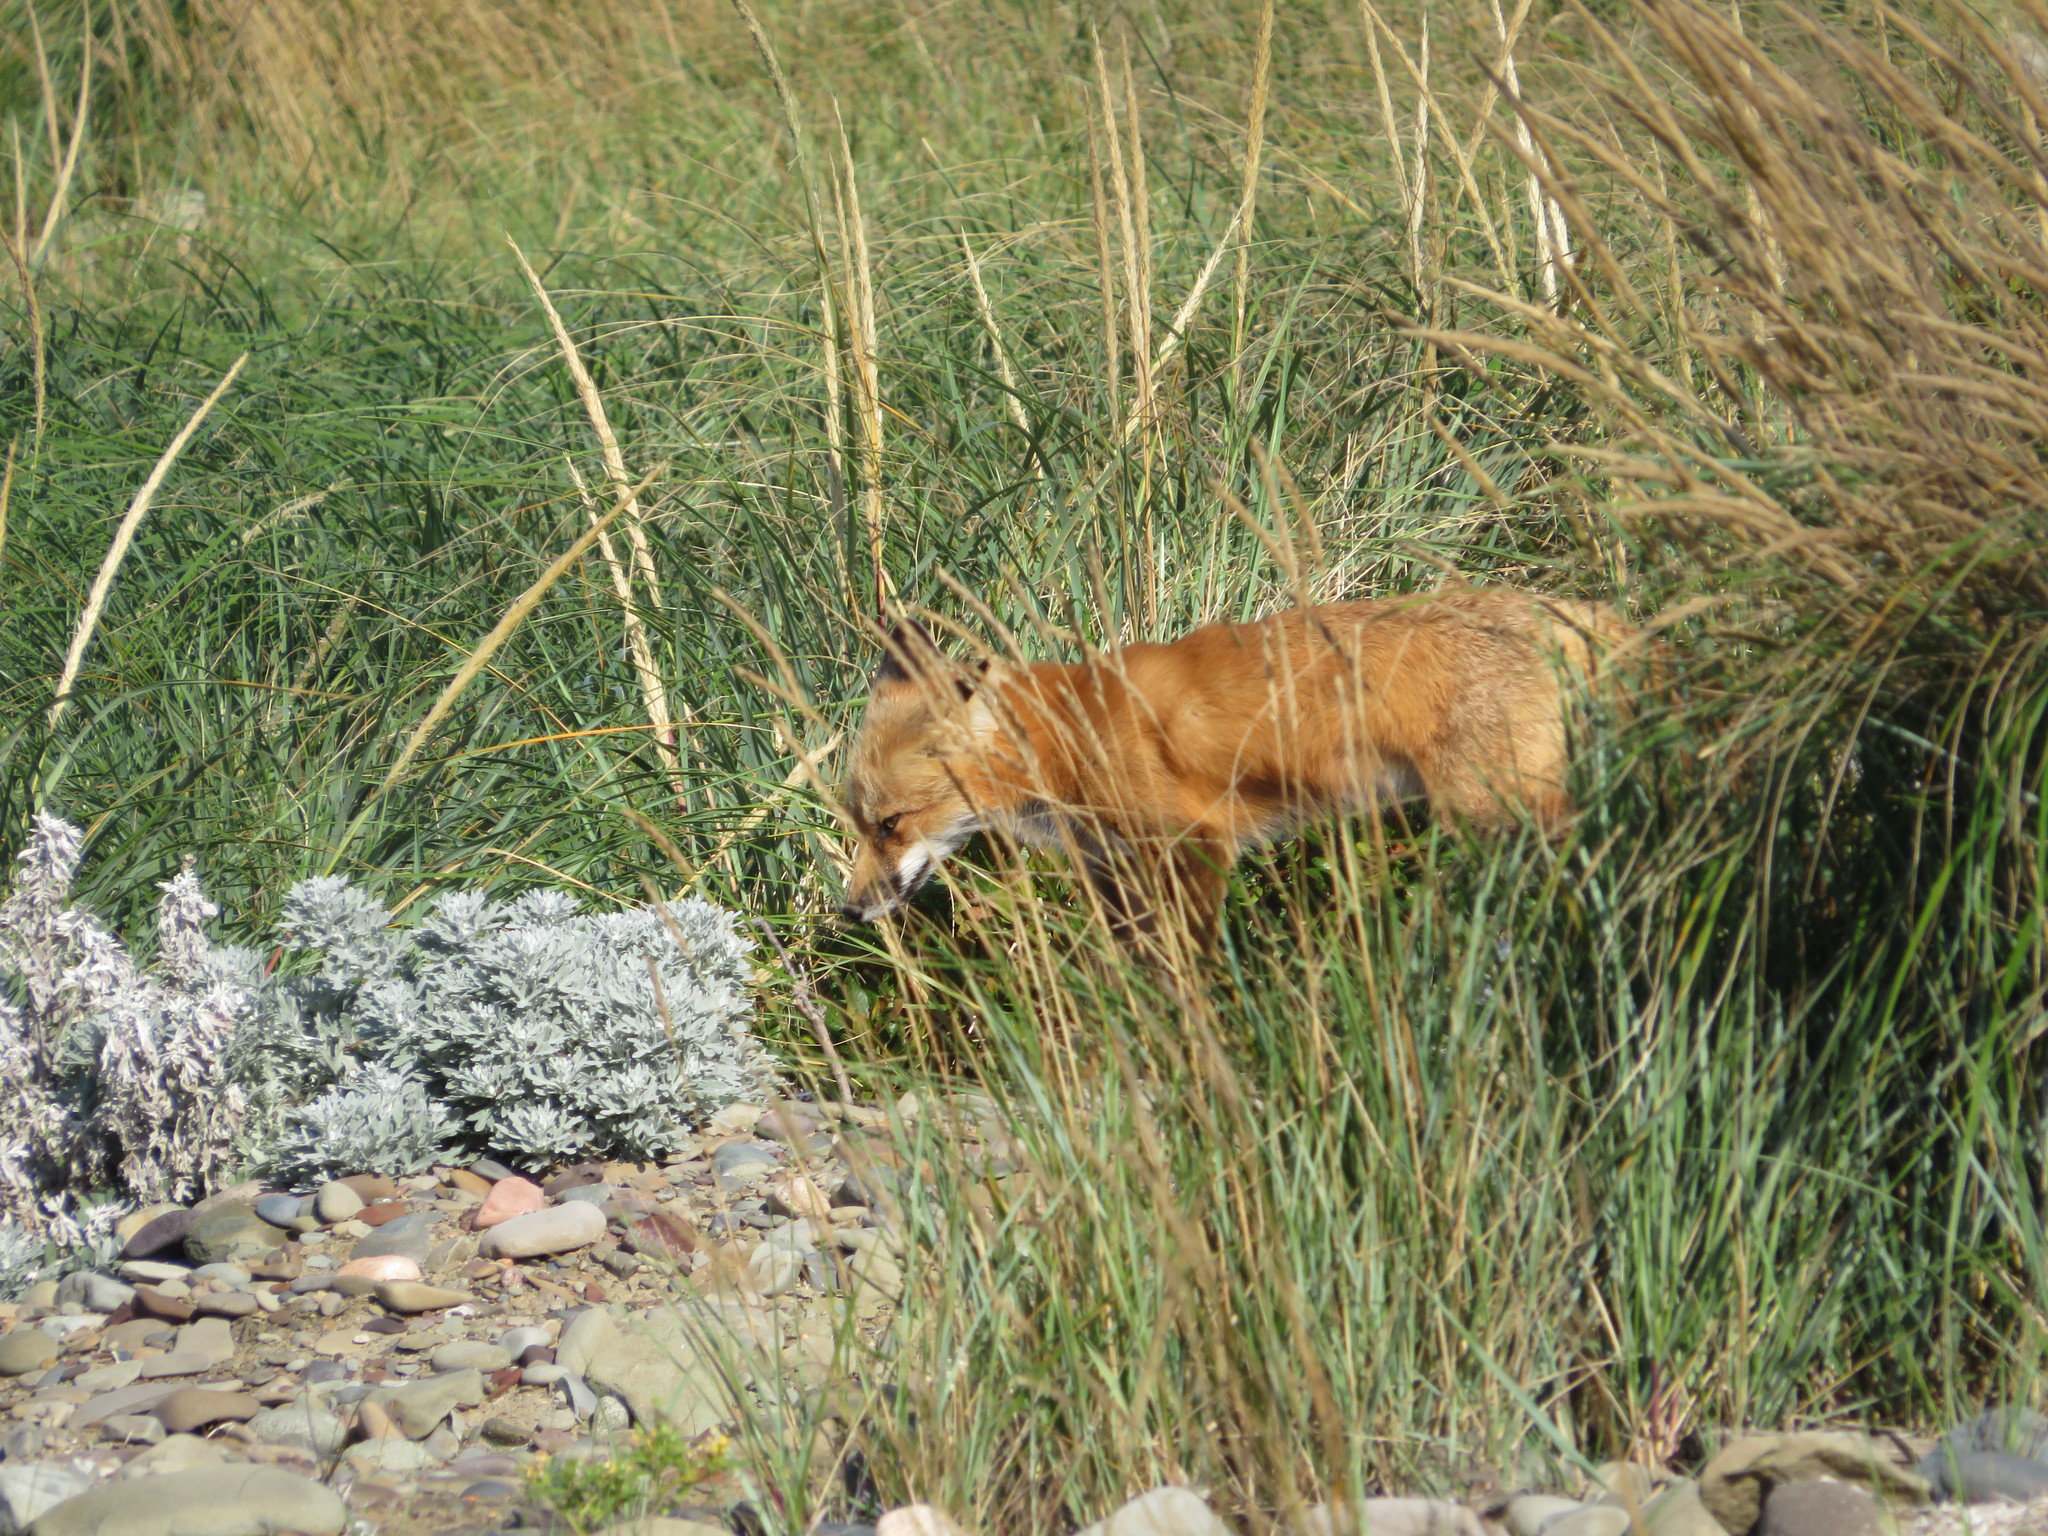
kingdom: Animalia
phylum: Chordata
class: Mammalia
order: Carnivora
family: Canidae
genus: Vulpes
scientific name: Vulpes vulpes
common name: Red fox
